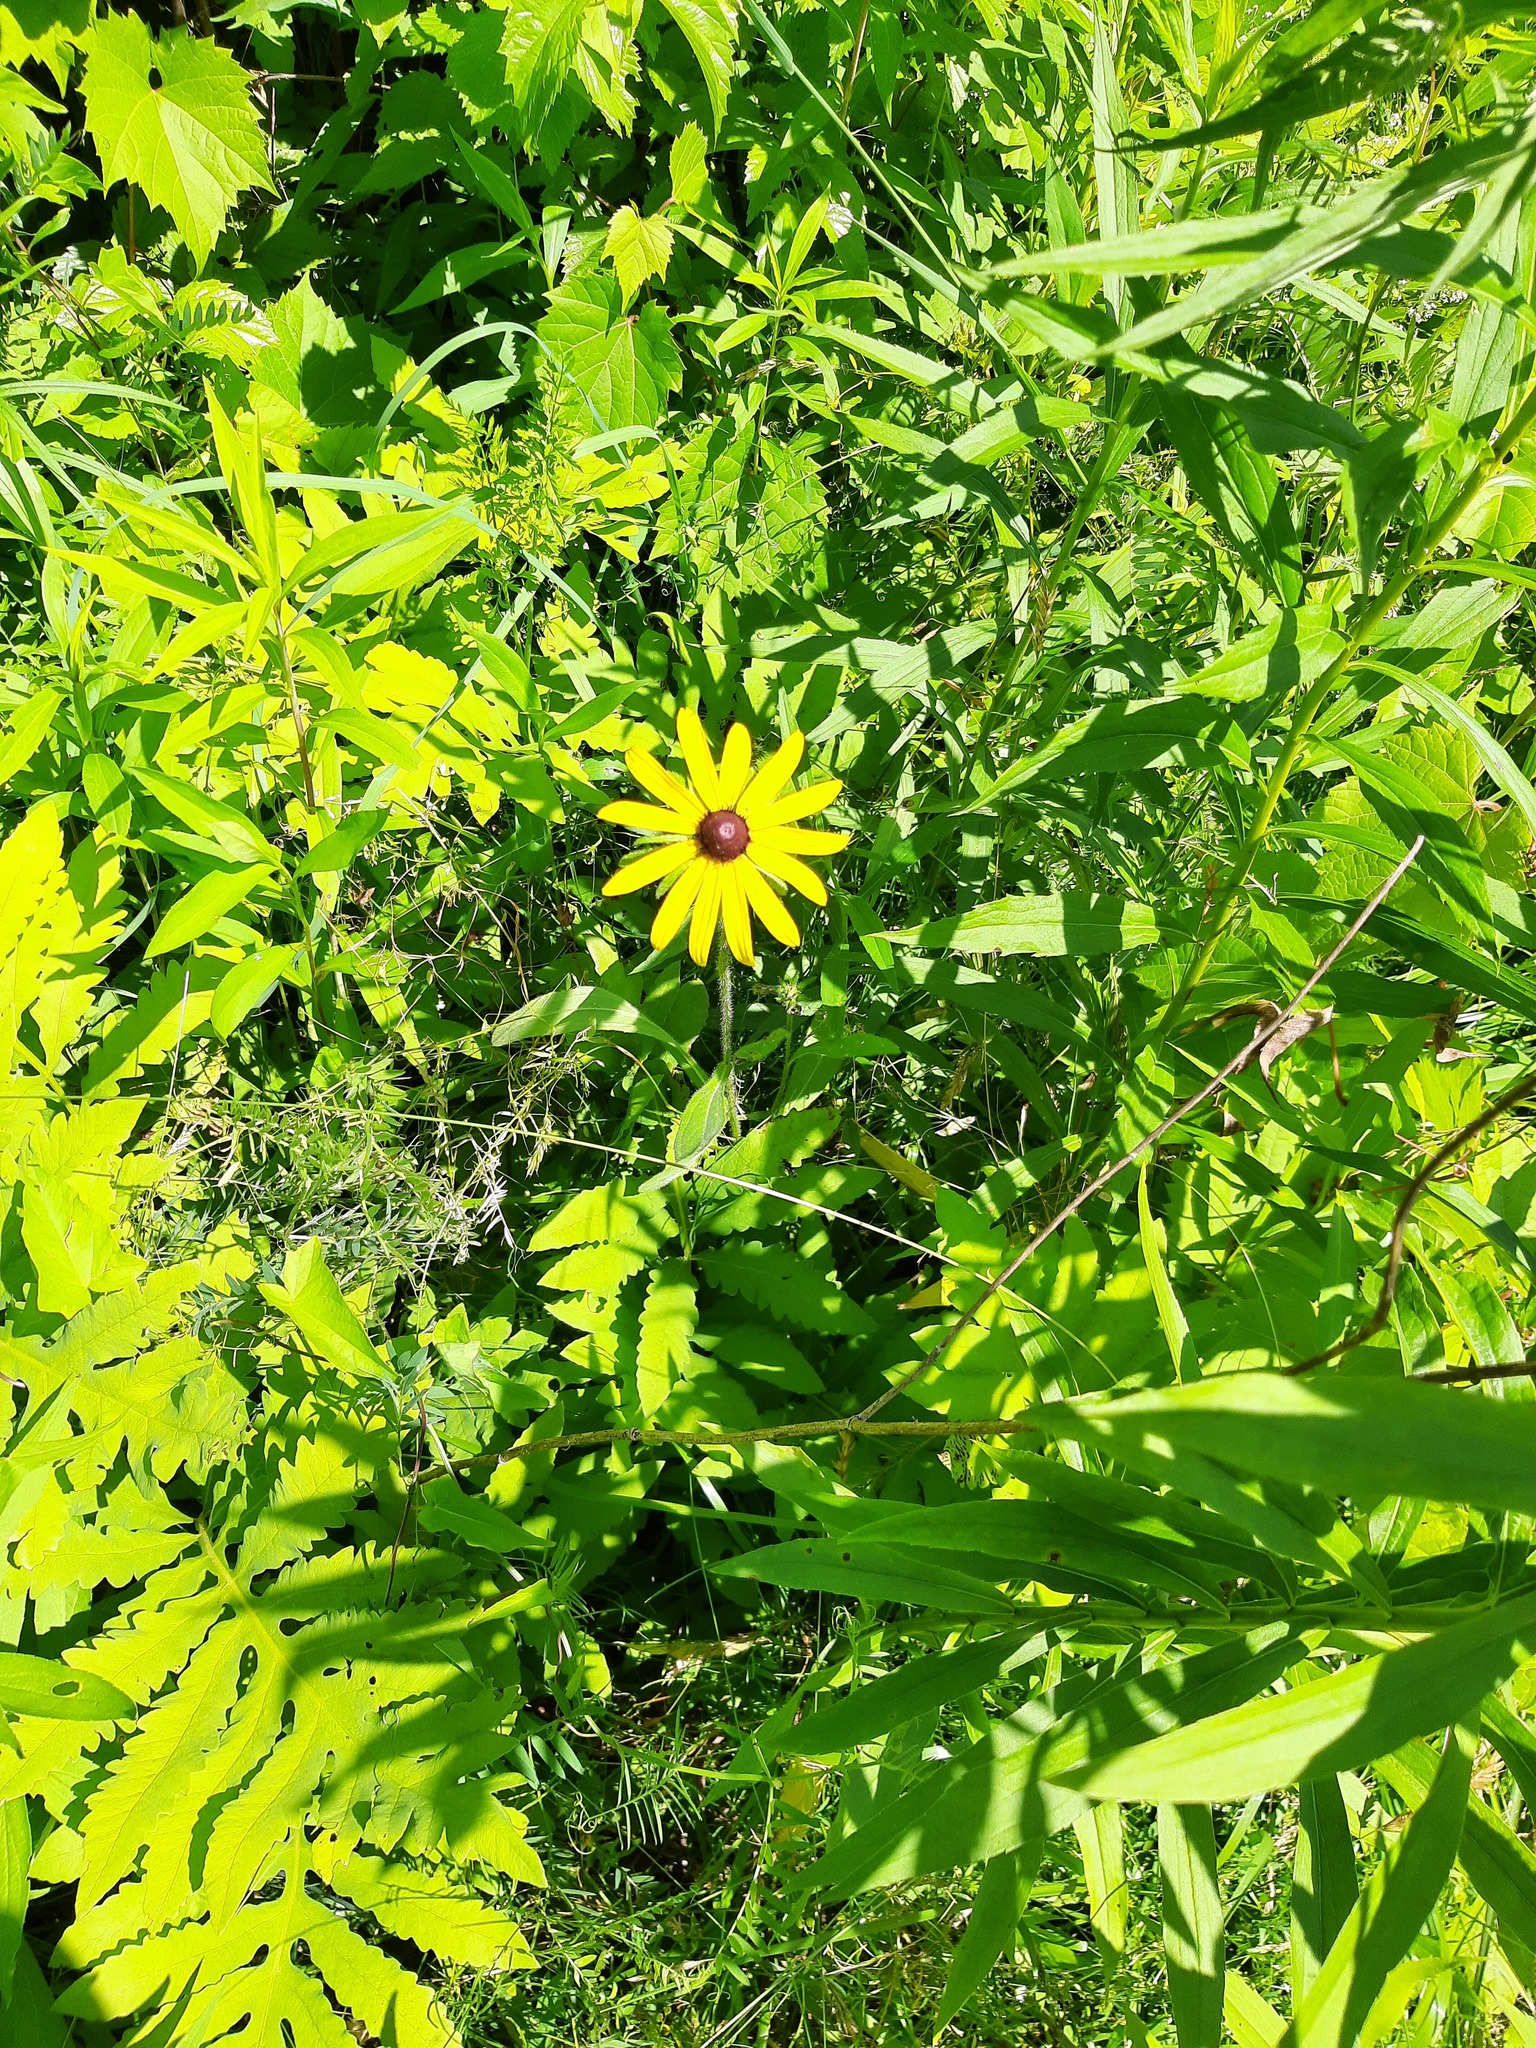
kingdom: Plantae
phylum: Tracheophyta
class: Magnoliopsida
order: Asterales
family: Asteraceae
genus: Rudbeckia
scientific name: Rudbeckia hirta
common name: Black-eyed-susan
